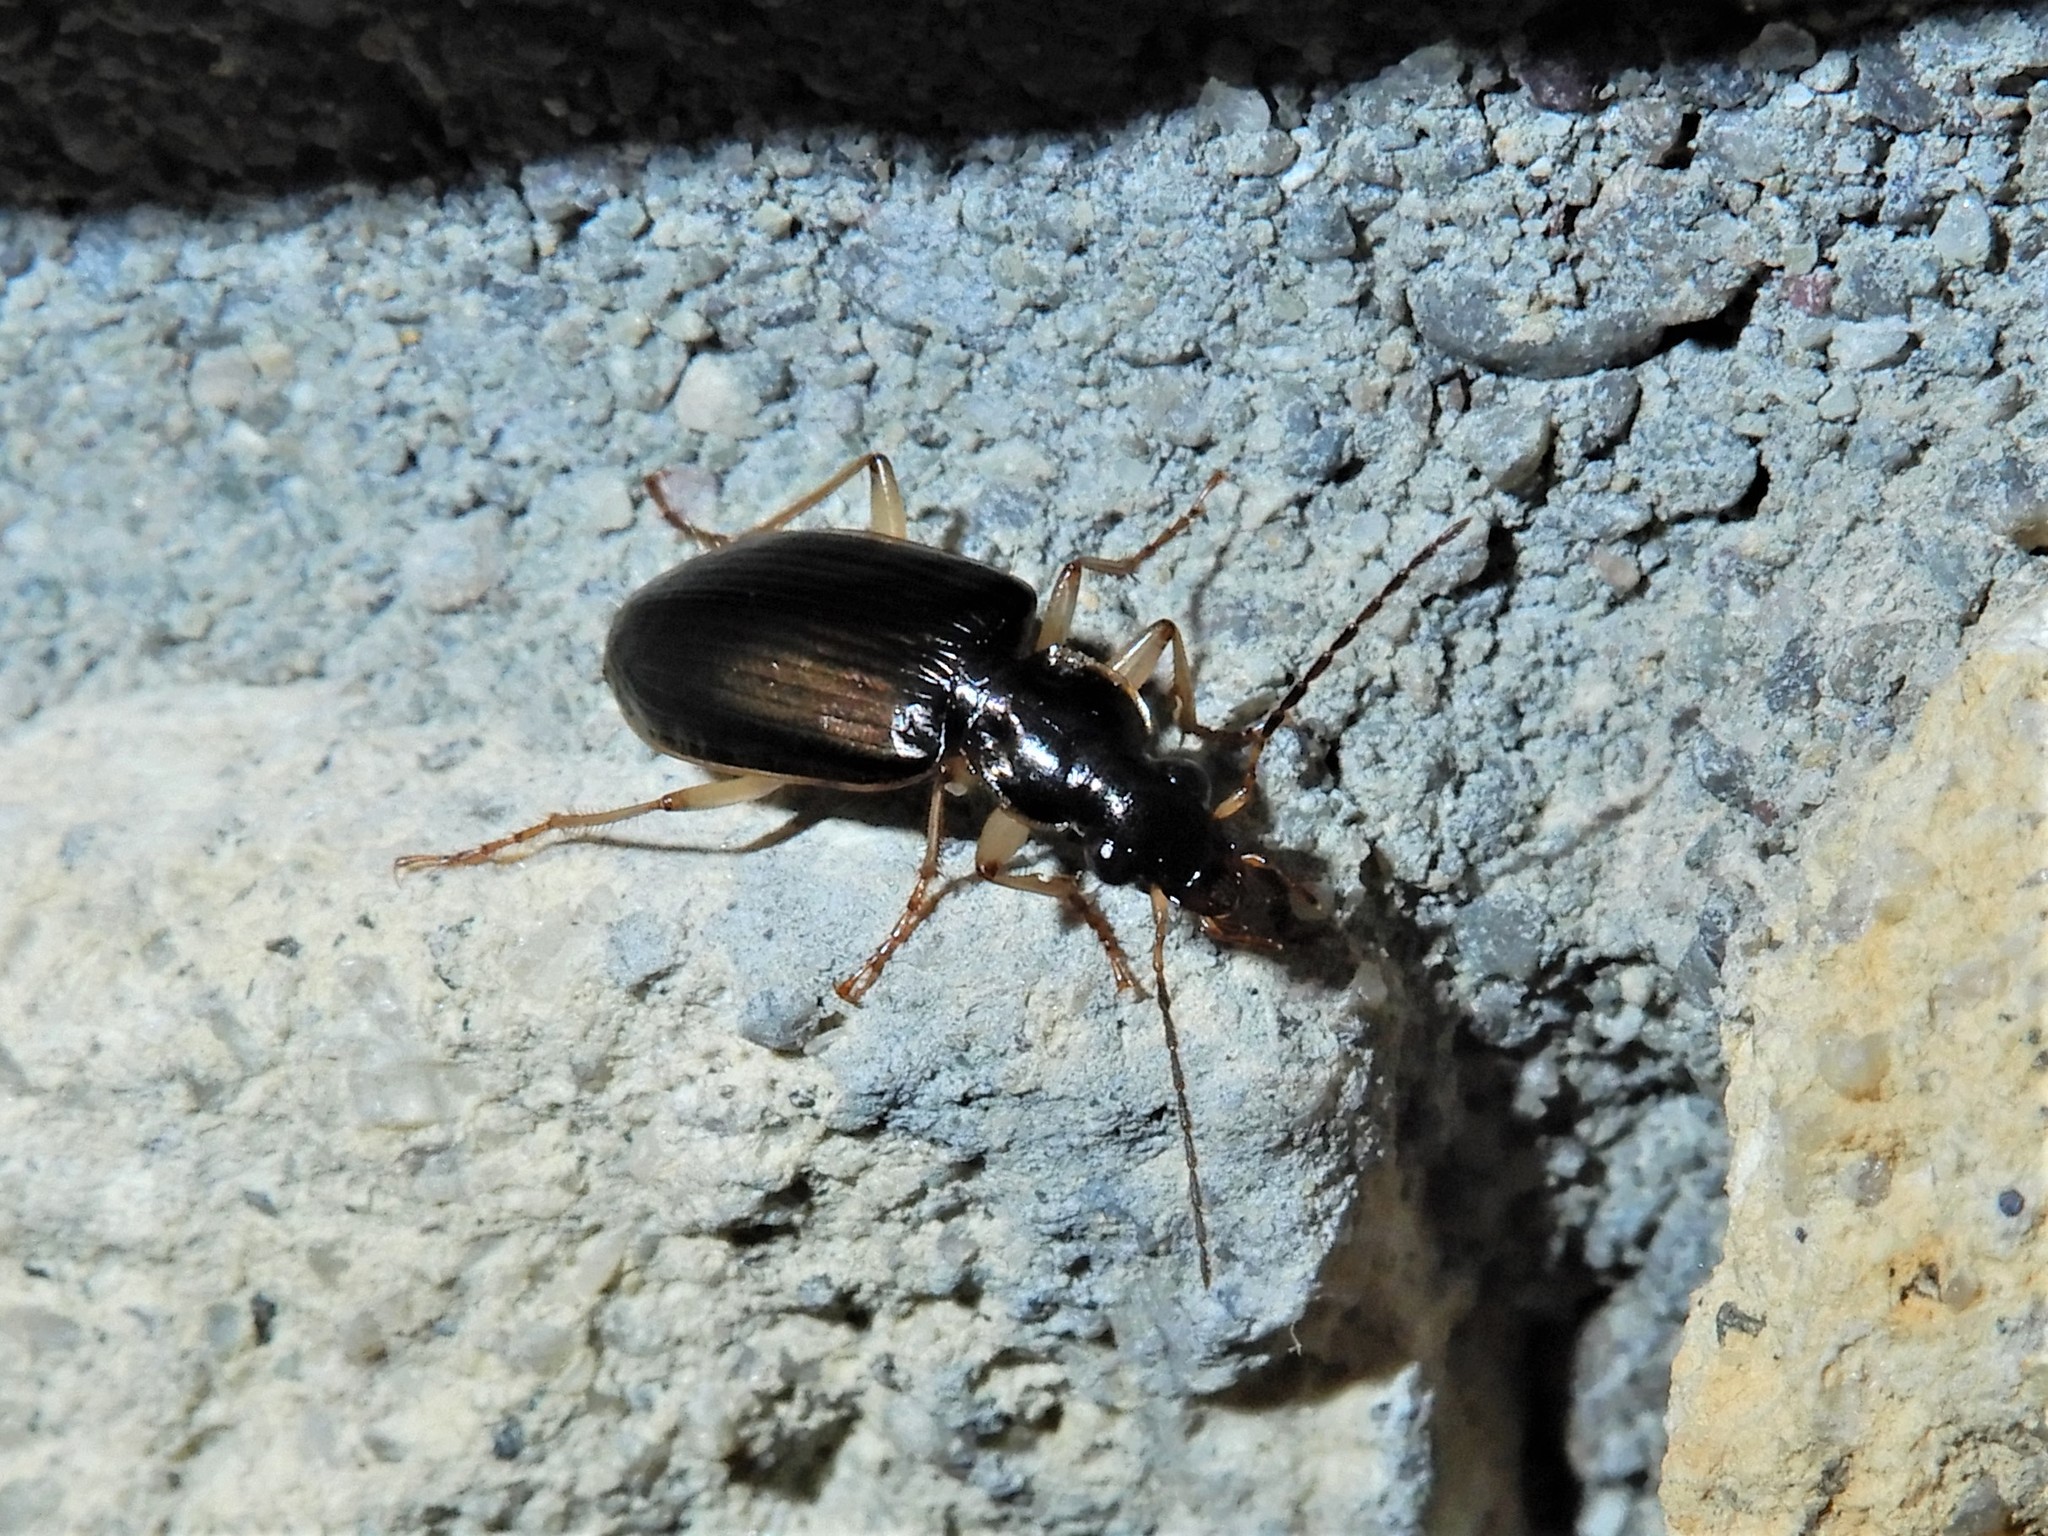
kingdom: Animalia
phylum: Arthropoda
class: Insecta
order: Coleoptera
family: Carabidae
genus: Notagonum
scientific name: Notagonum submetallicum
